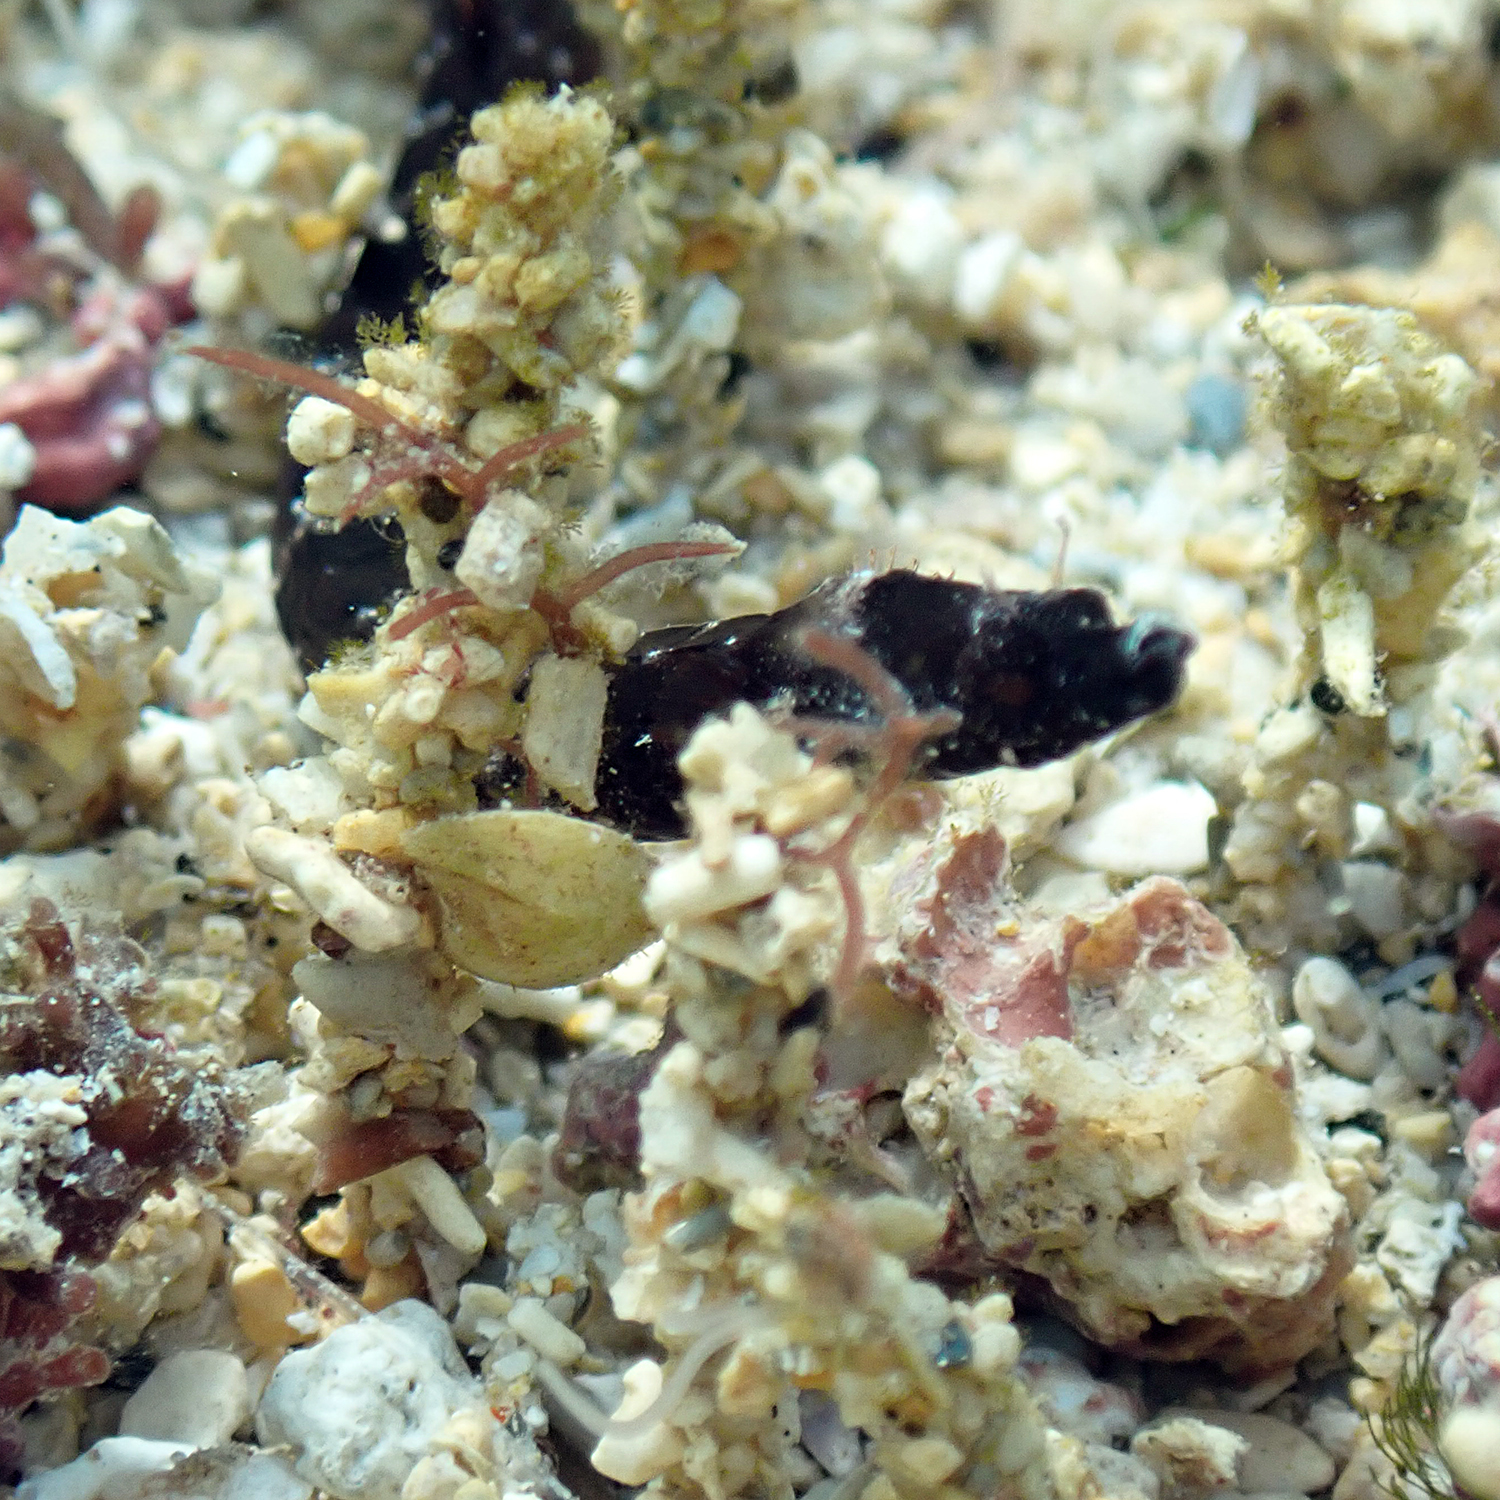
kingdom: Animalia
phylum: Chordata
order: Syngnathiformes
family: Syngnathidae
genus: Halicampus
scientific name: Halicampus boothae
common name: Booth's pipefish
